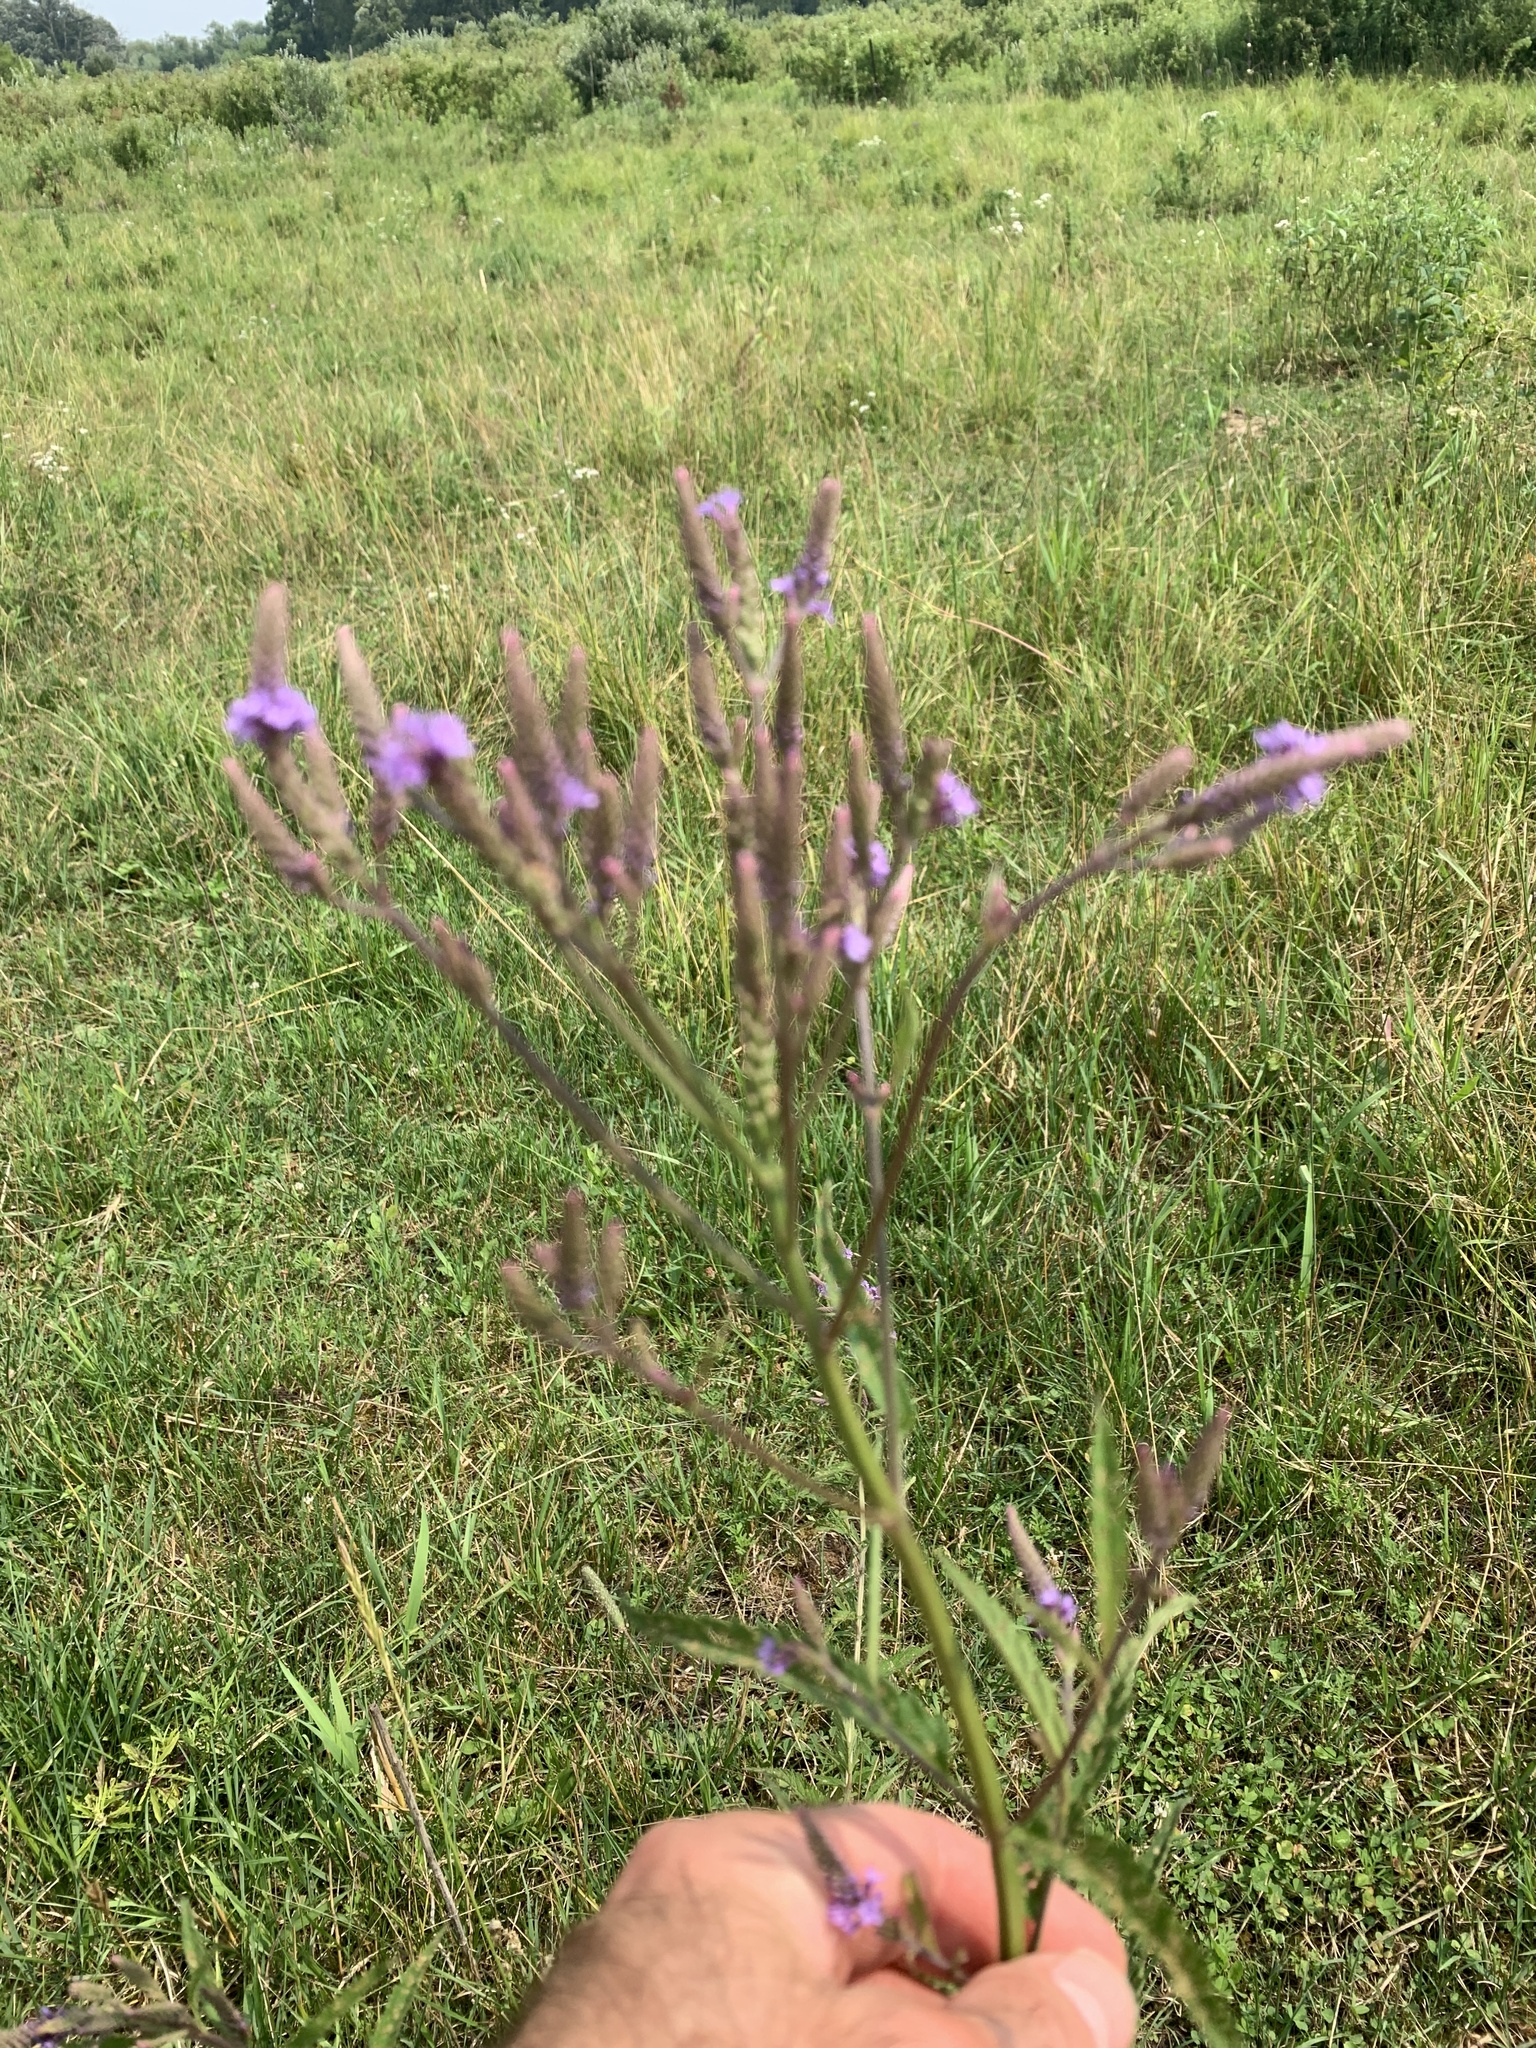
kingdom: Plantae
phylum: Tracheophyta
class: Magnoliopsida
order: Lamiales
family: Verbenaceae
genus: Verbena
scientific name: Verbena hastata
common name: American blue vervain
